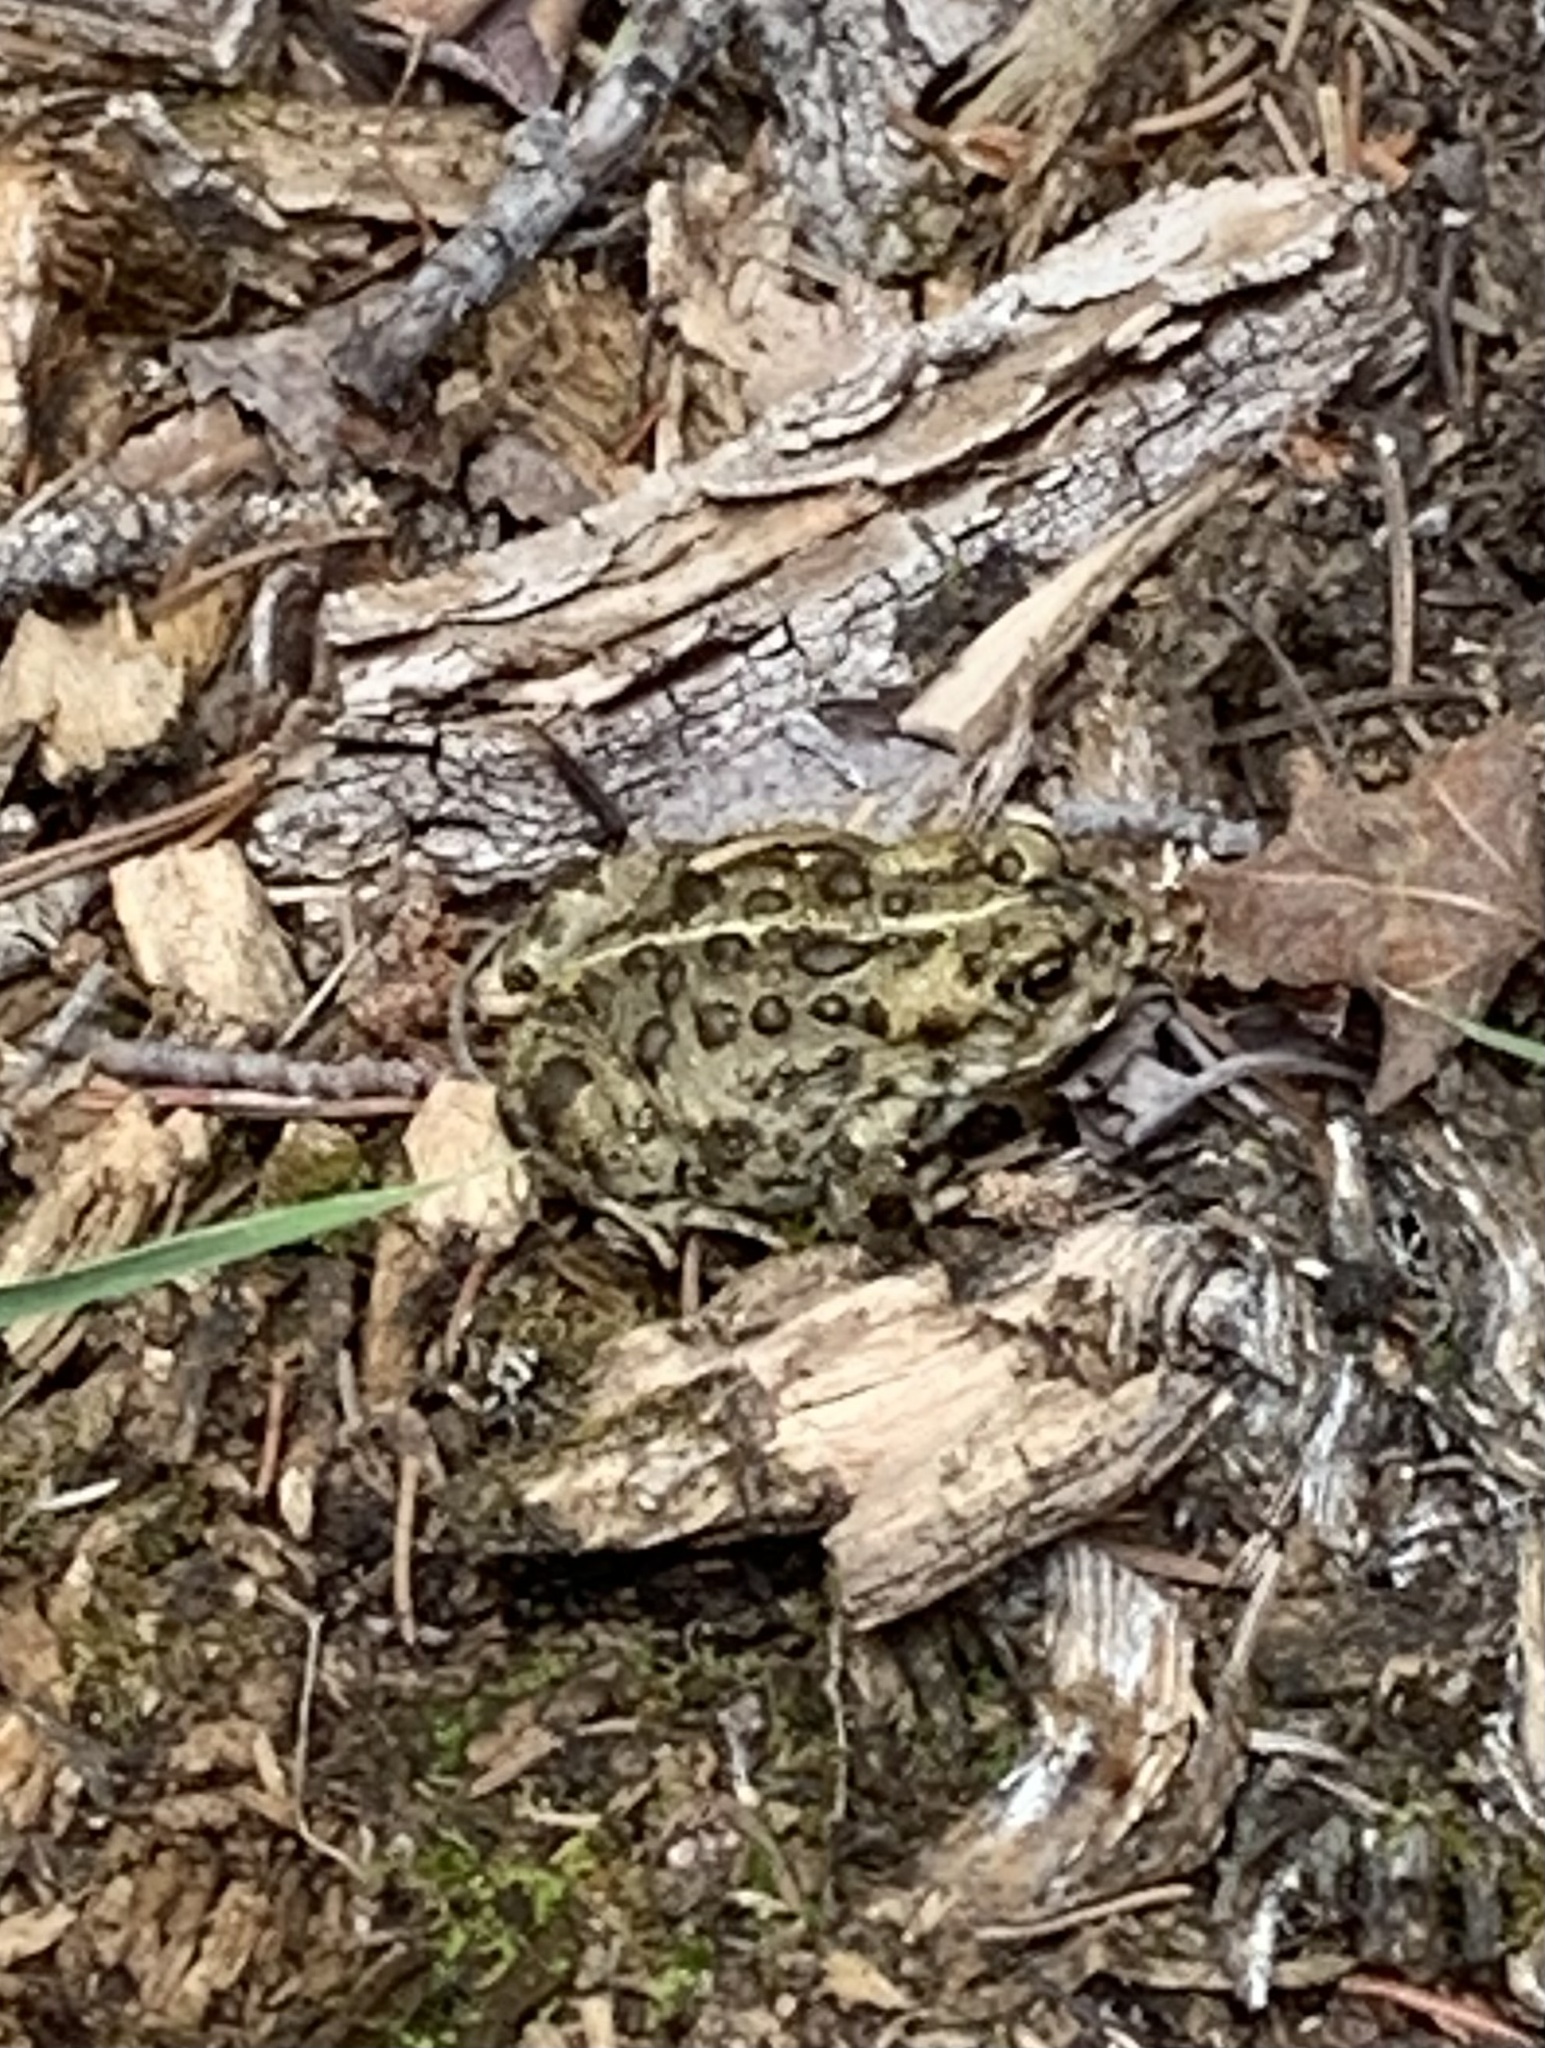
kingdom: Animalia
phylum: Chordata
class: Amphibia
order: Anura
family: Bufonidae
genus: Anaxyrus
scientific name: Anaxyrus boreas
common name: Western toad
